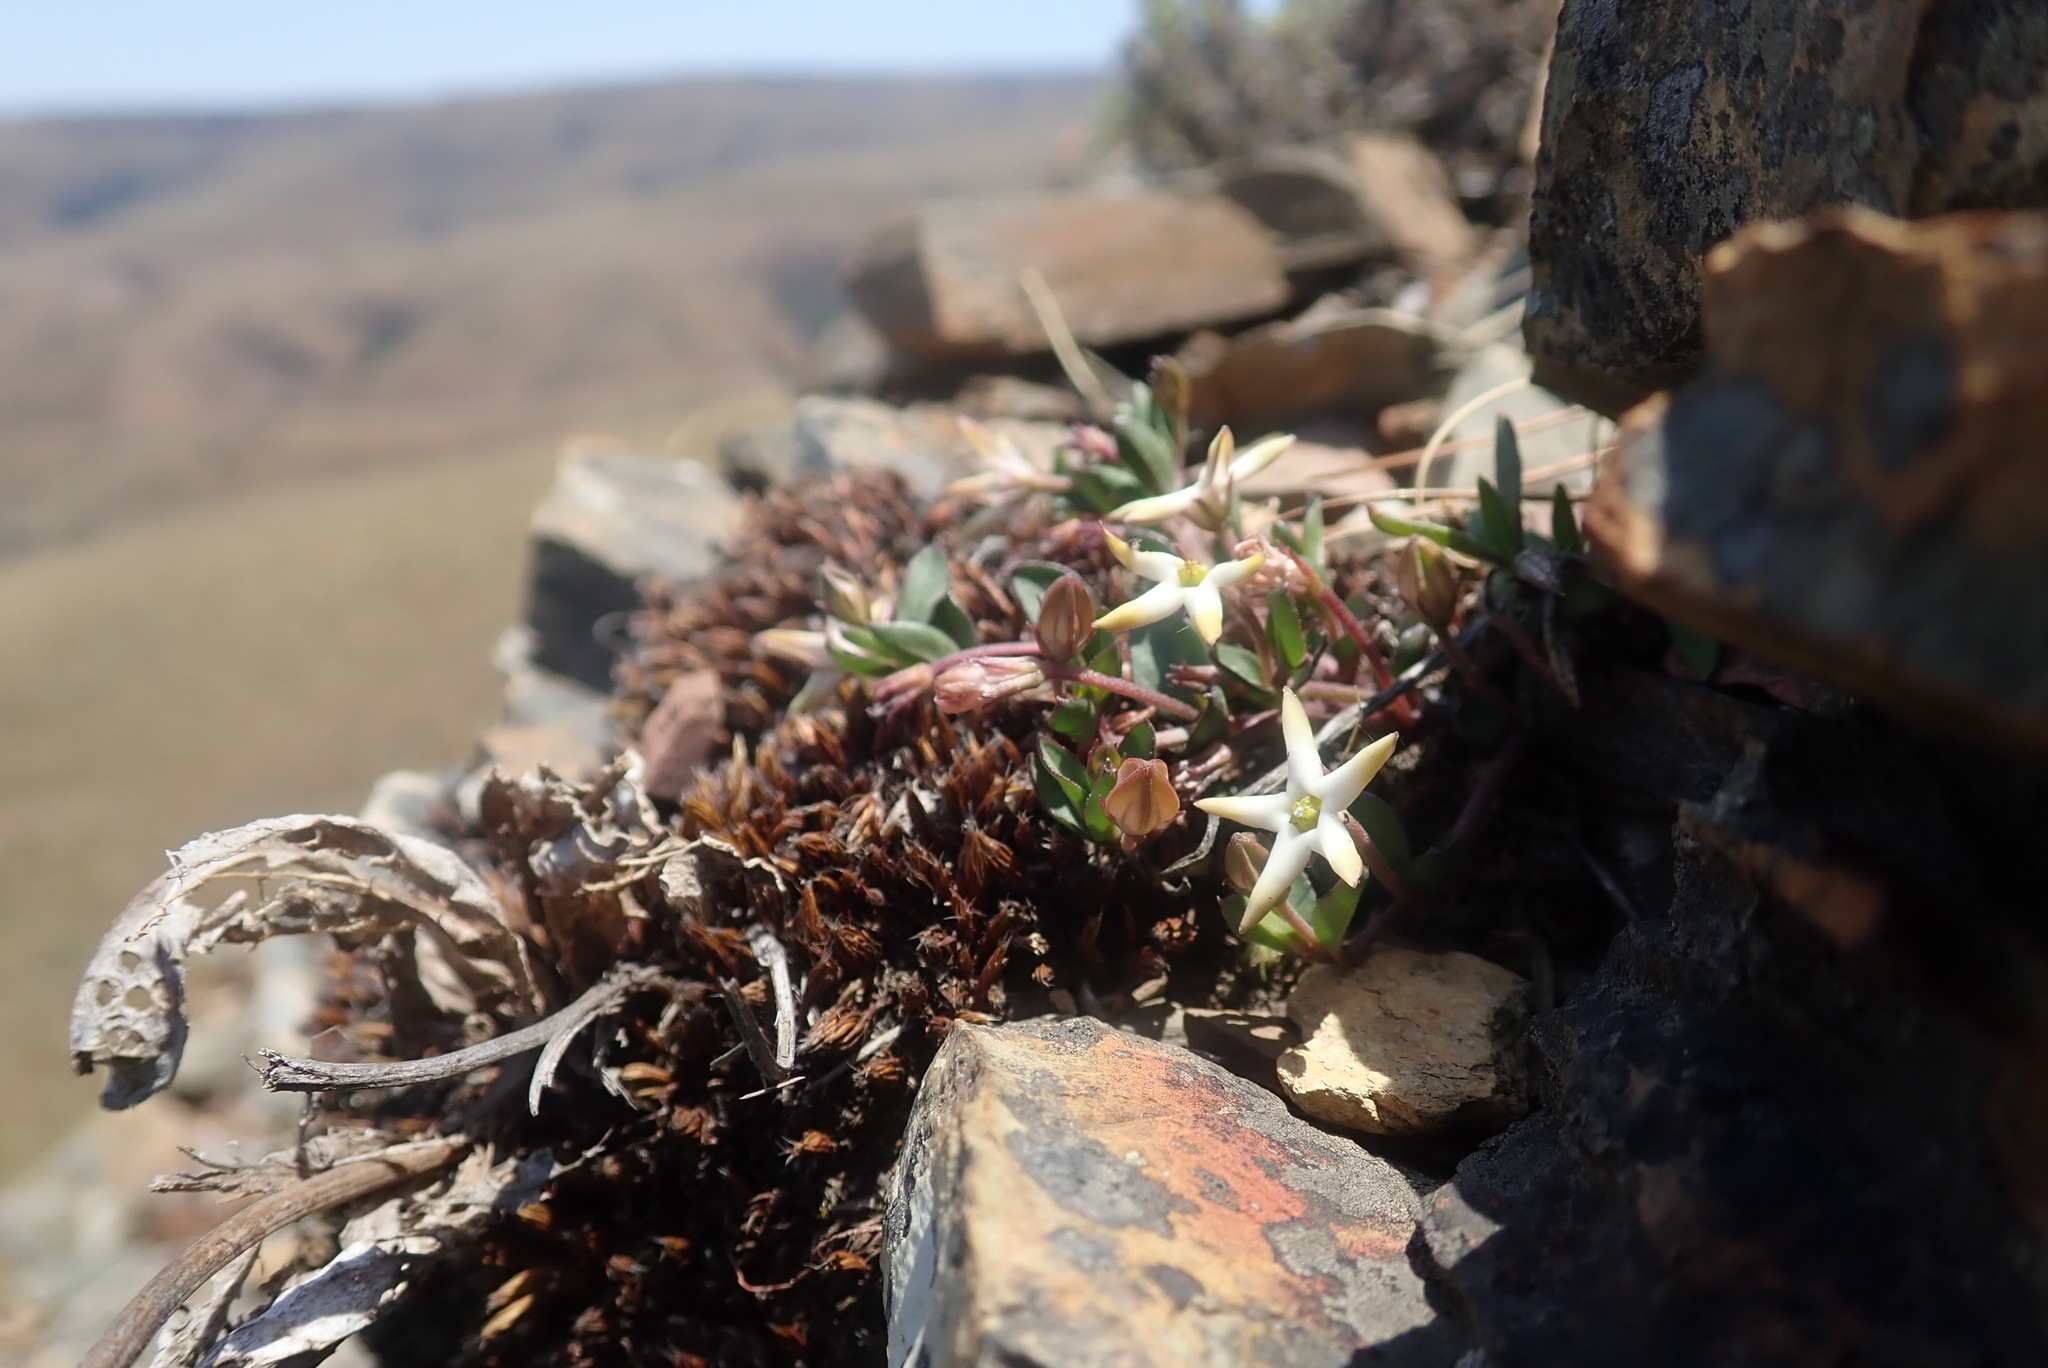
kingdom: Plantae
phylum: Tracheophyta
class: Magnoliopsida
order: Gentianales
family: Apocynaceae
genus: Ceropegia
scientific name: Ceropegia stellata
